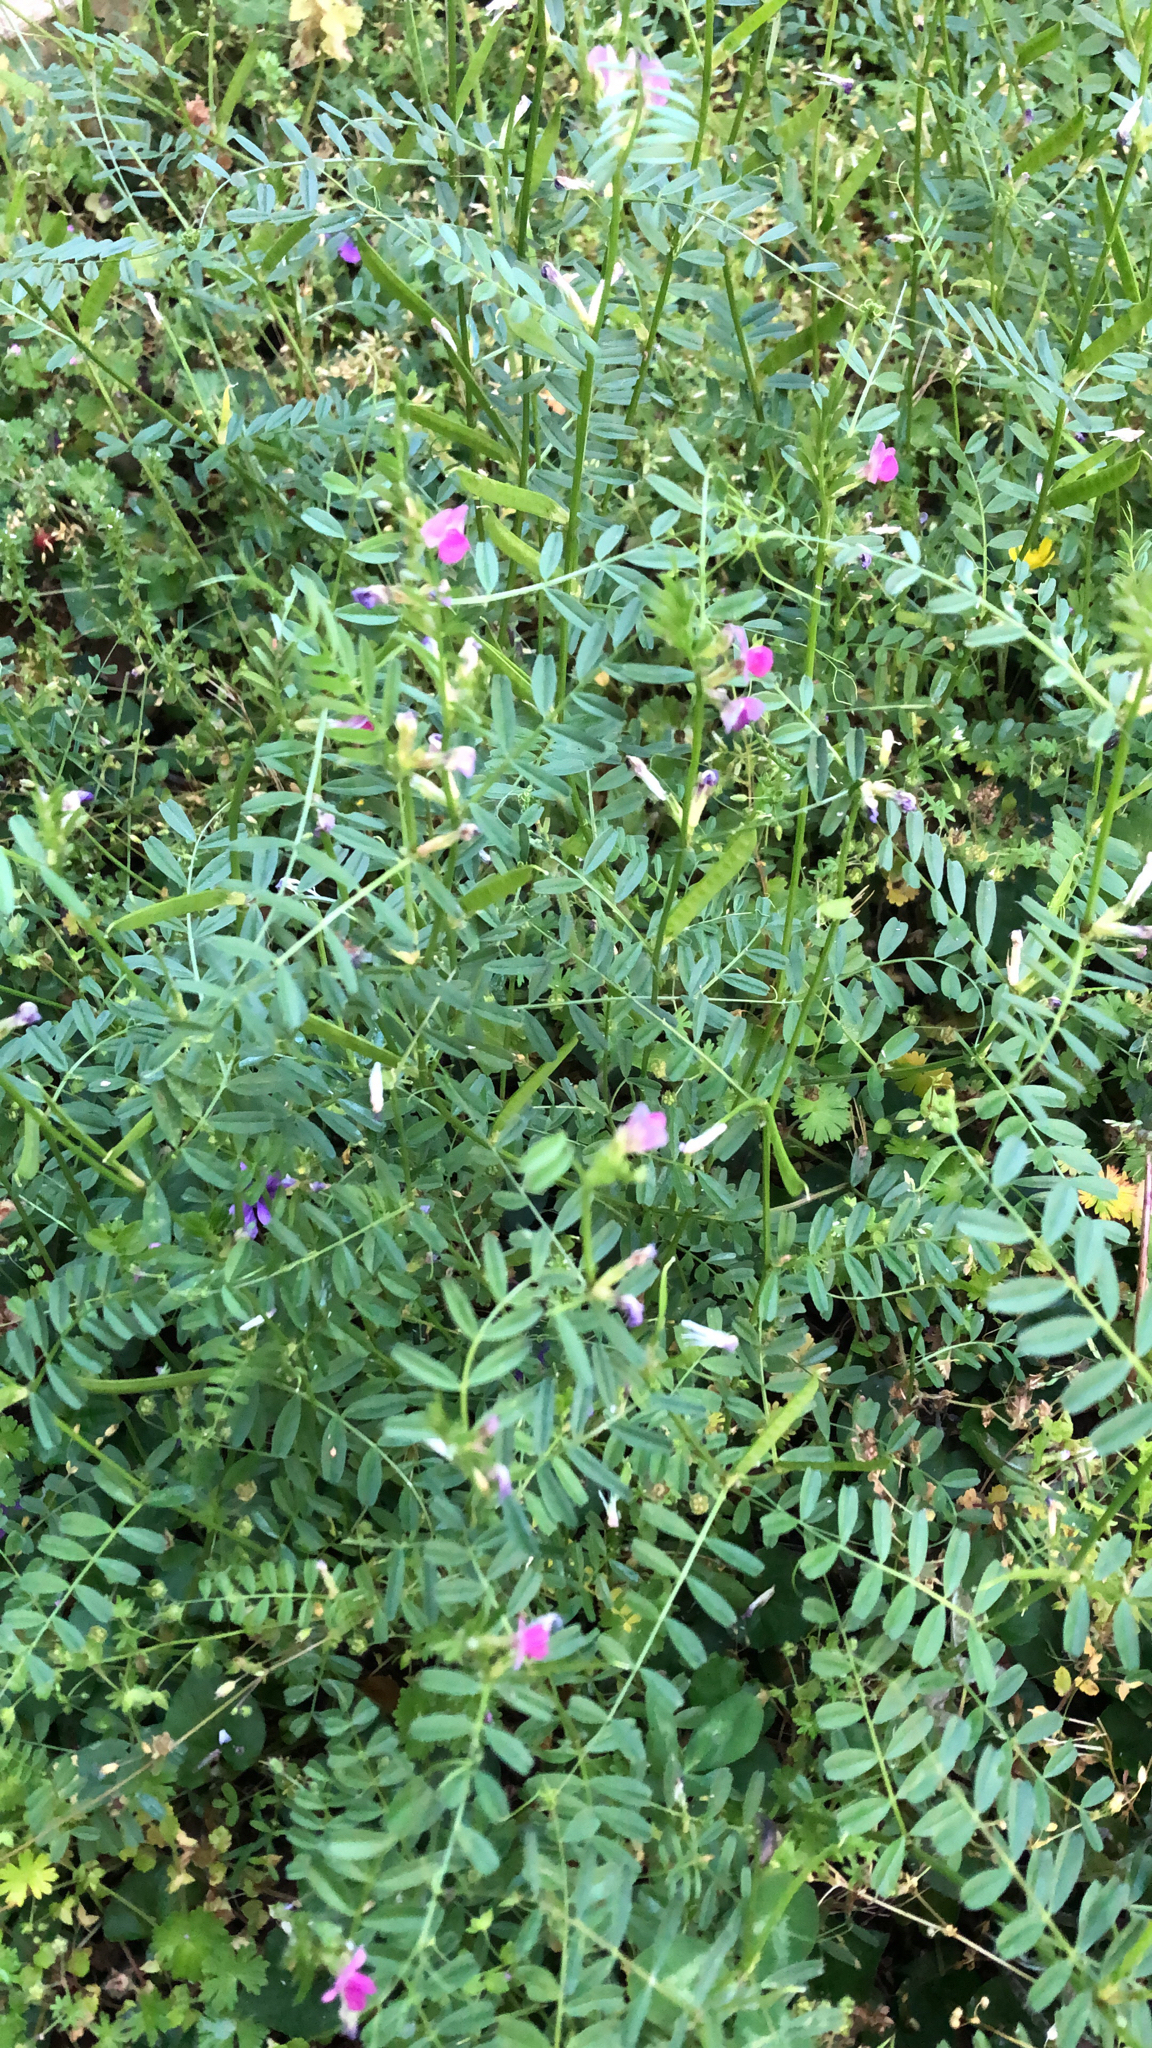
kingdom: Plantae
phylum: Tracheophyta
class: Magnoliopsida
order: Fabales
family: Fabaceae
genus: Vicia
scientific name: Vicia sativa
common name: Garden vetch
